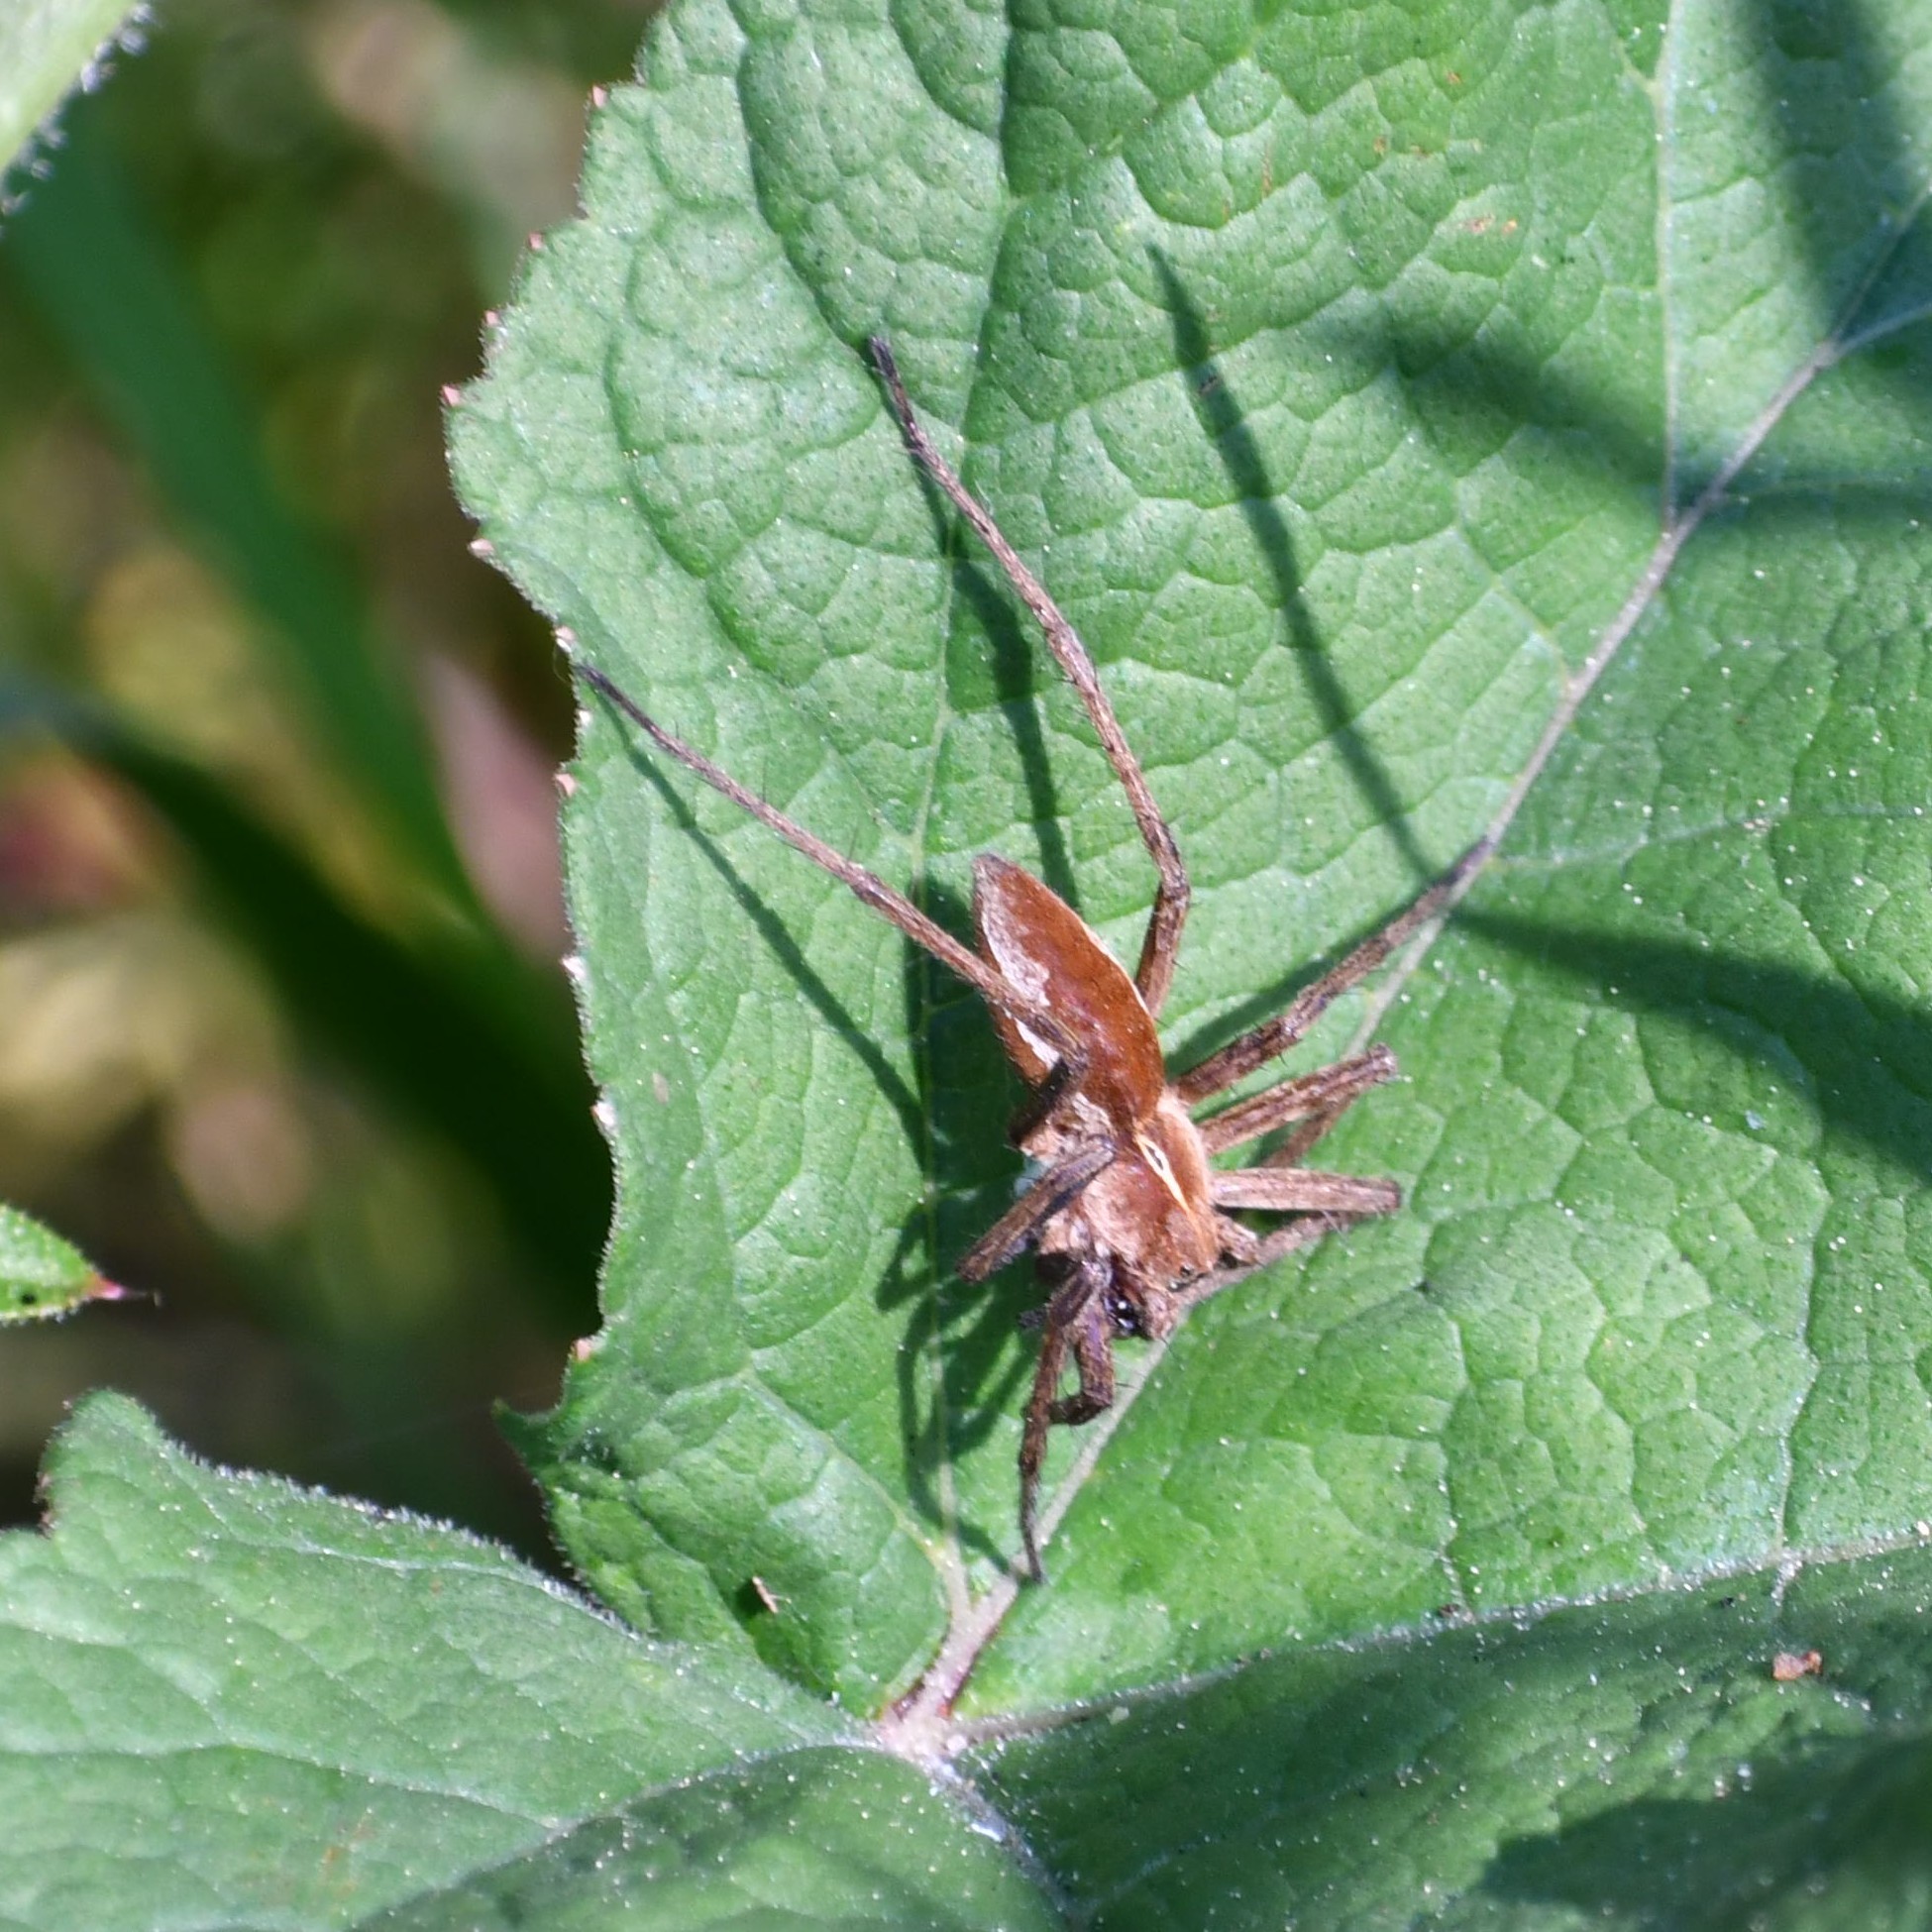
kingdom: Animalia
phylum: Arthropoda
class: Arachnida
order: Araneae
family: Pisauridae
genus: Pisaura
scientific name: Pisaura mirabilis
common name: Tent spider
